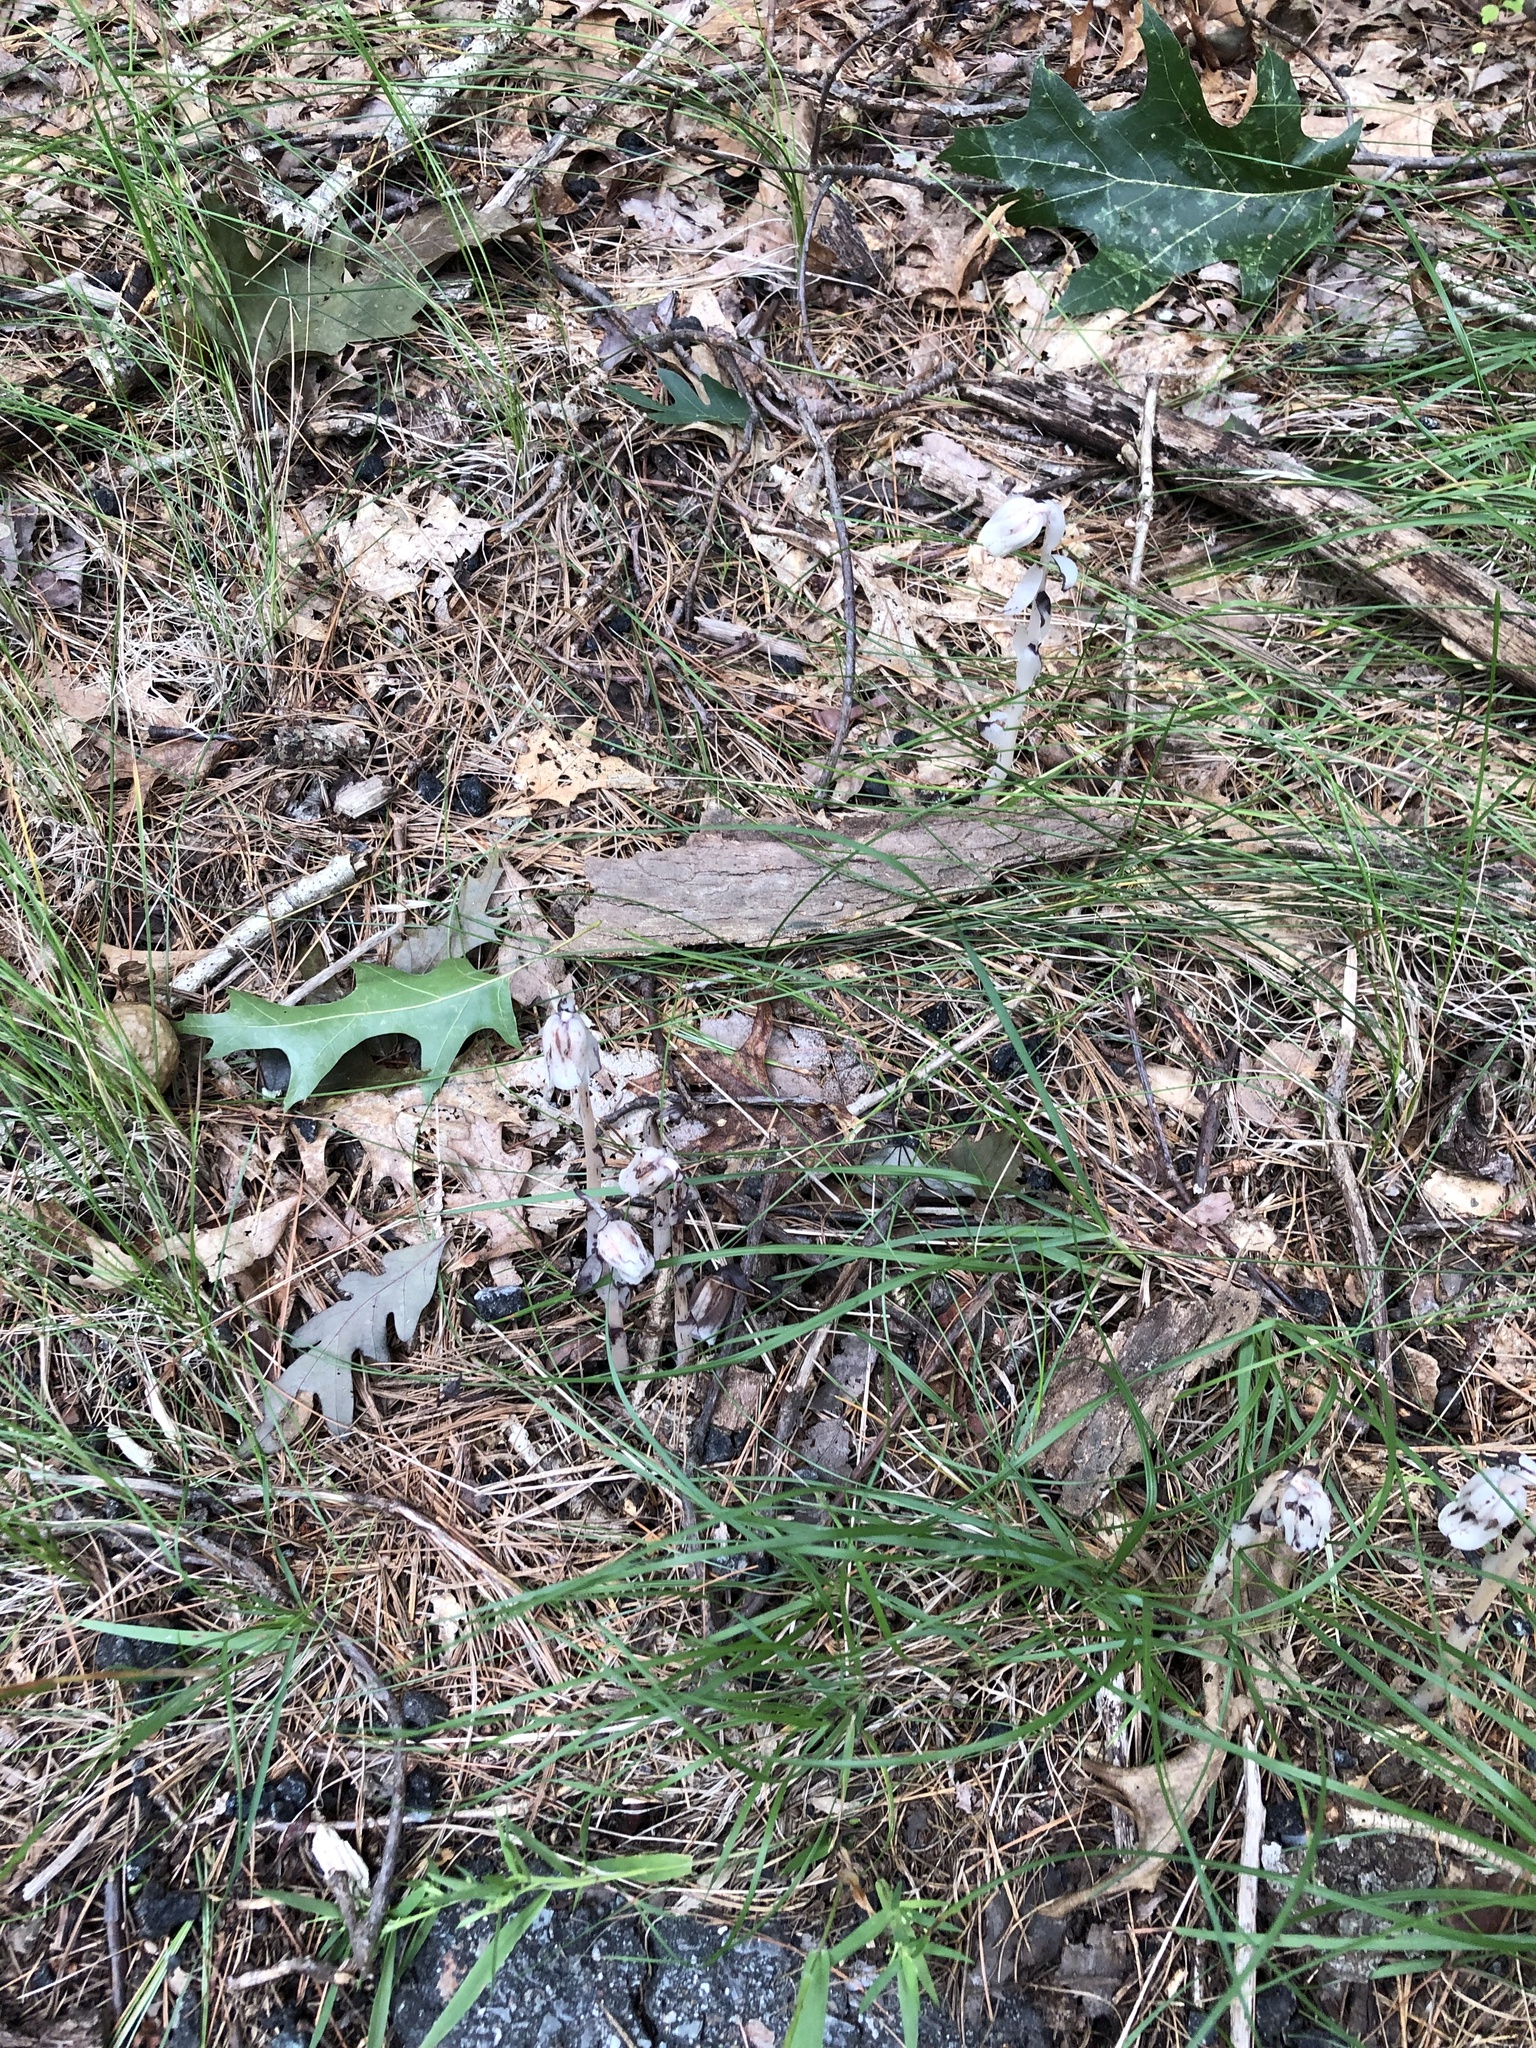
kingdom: Plantae
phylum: Tracheophyta
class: Magnoliopsida
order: Ericales
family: Ericaceae
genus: Monotropa
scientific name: Monotropa uniflora
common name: Convulsion root
